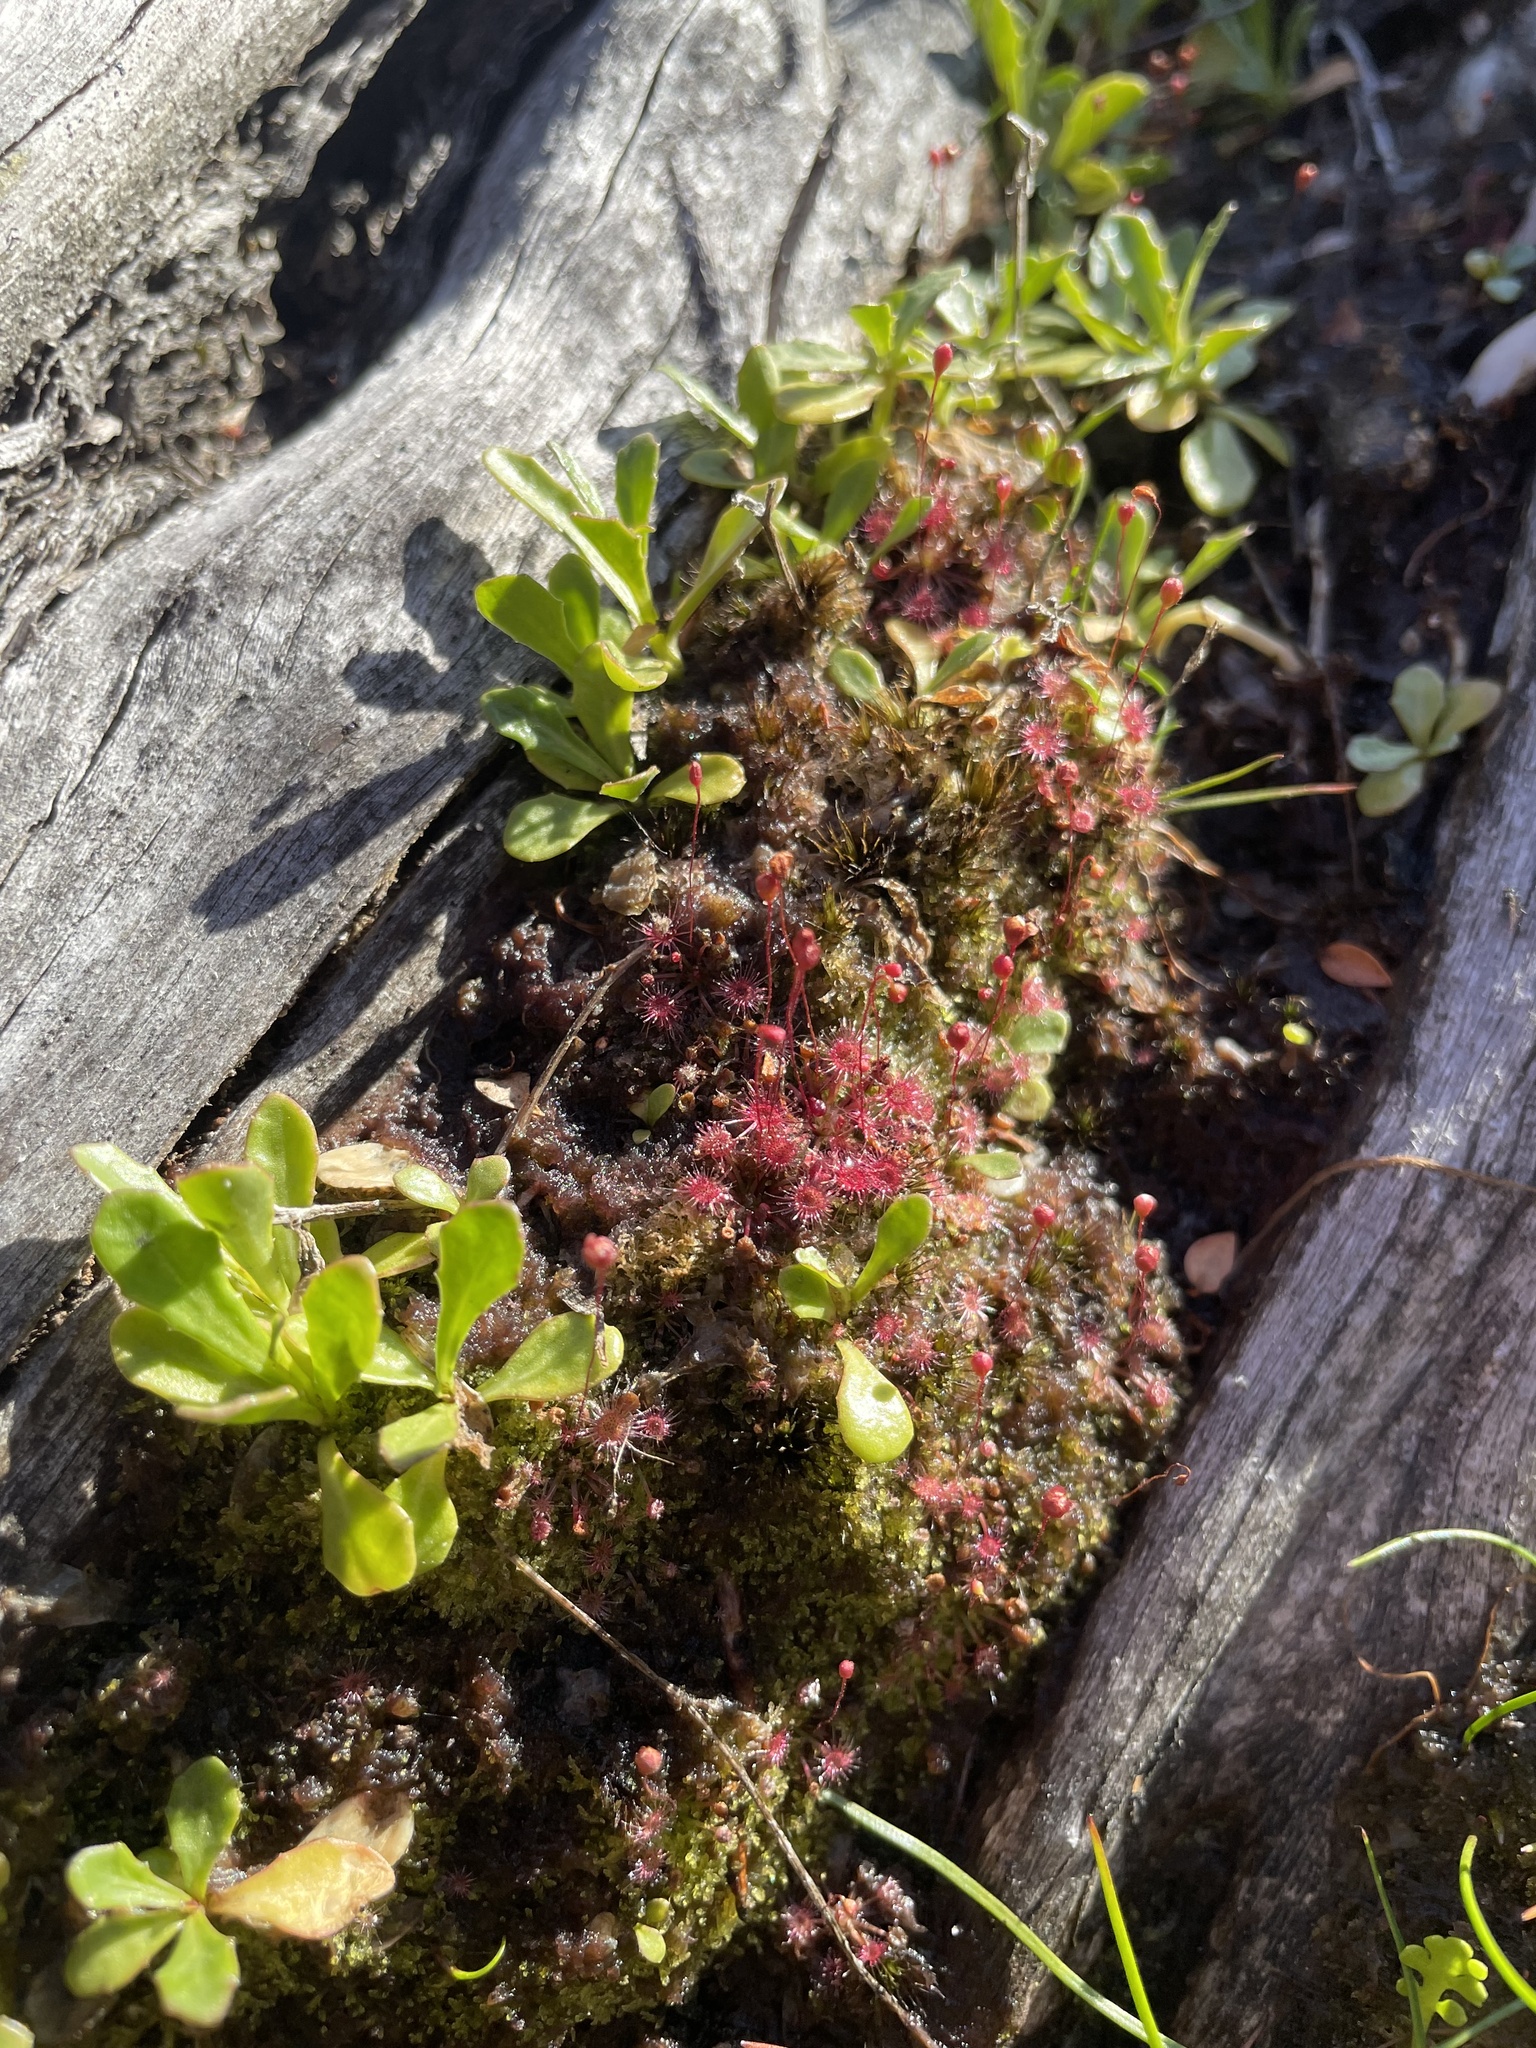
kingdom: Plantae
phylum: Tracheophyta
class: Magnoliopsida
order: Caryophyllales
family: Droseraceae
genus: Drosera
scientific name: Drosera pygmaea
